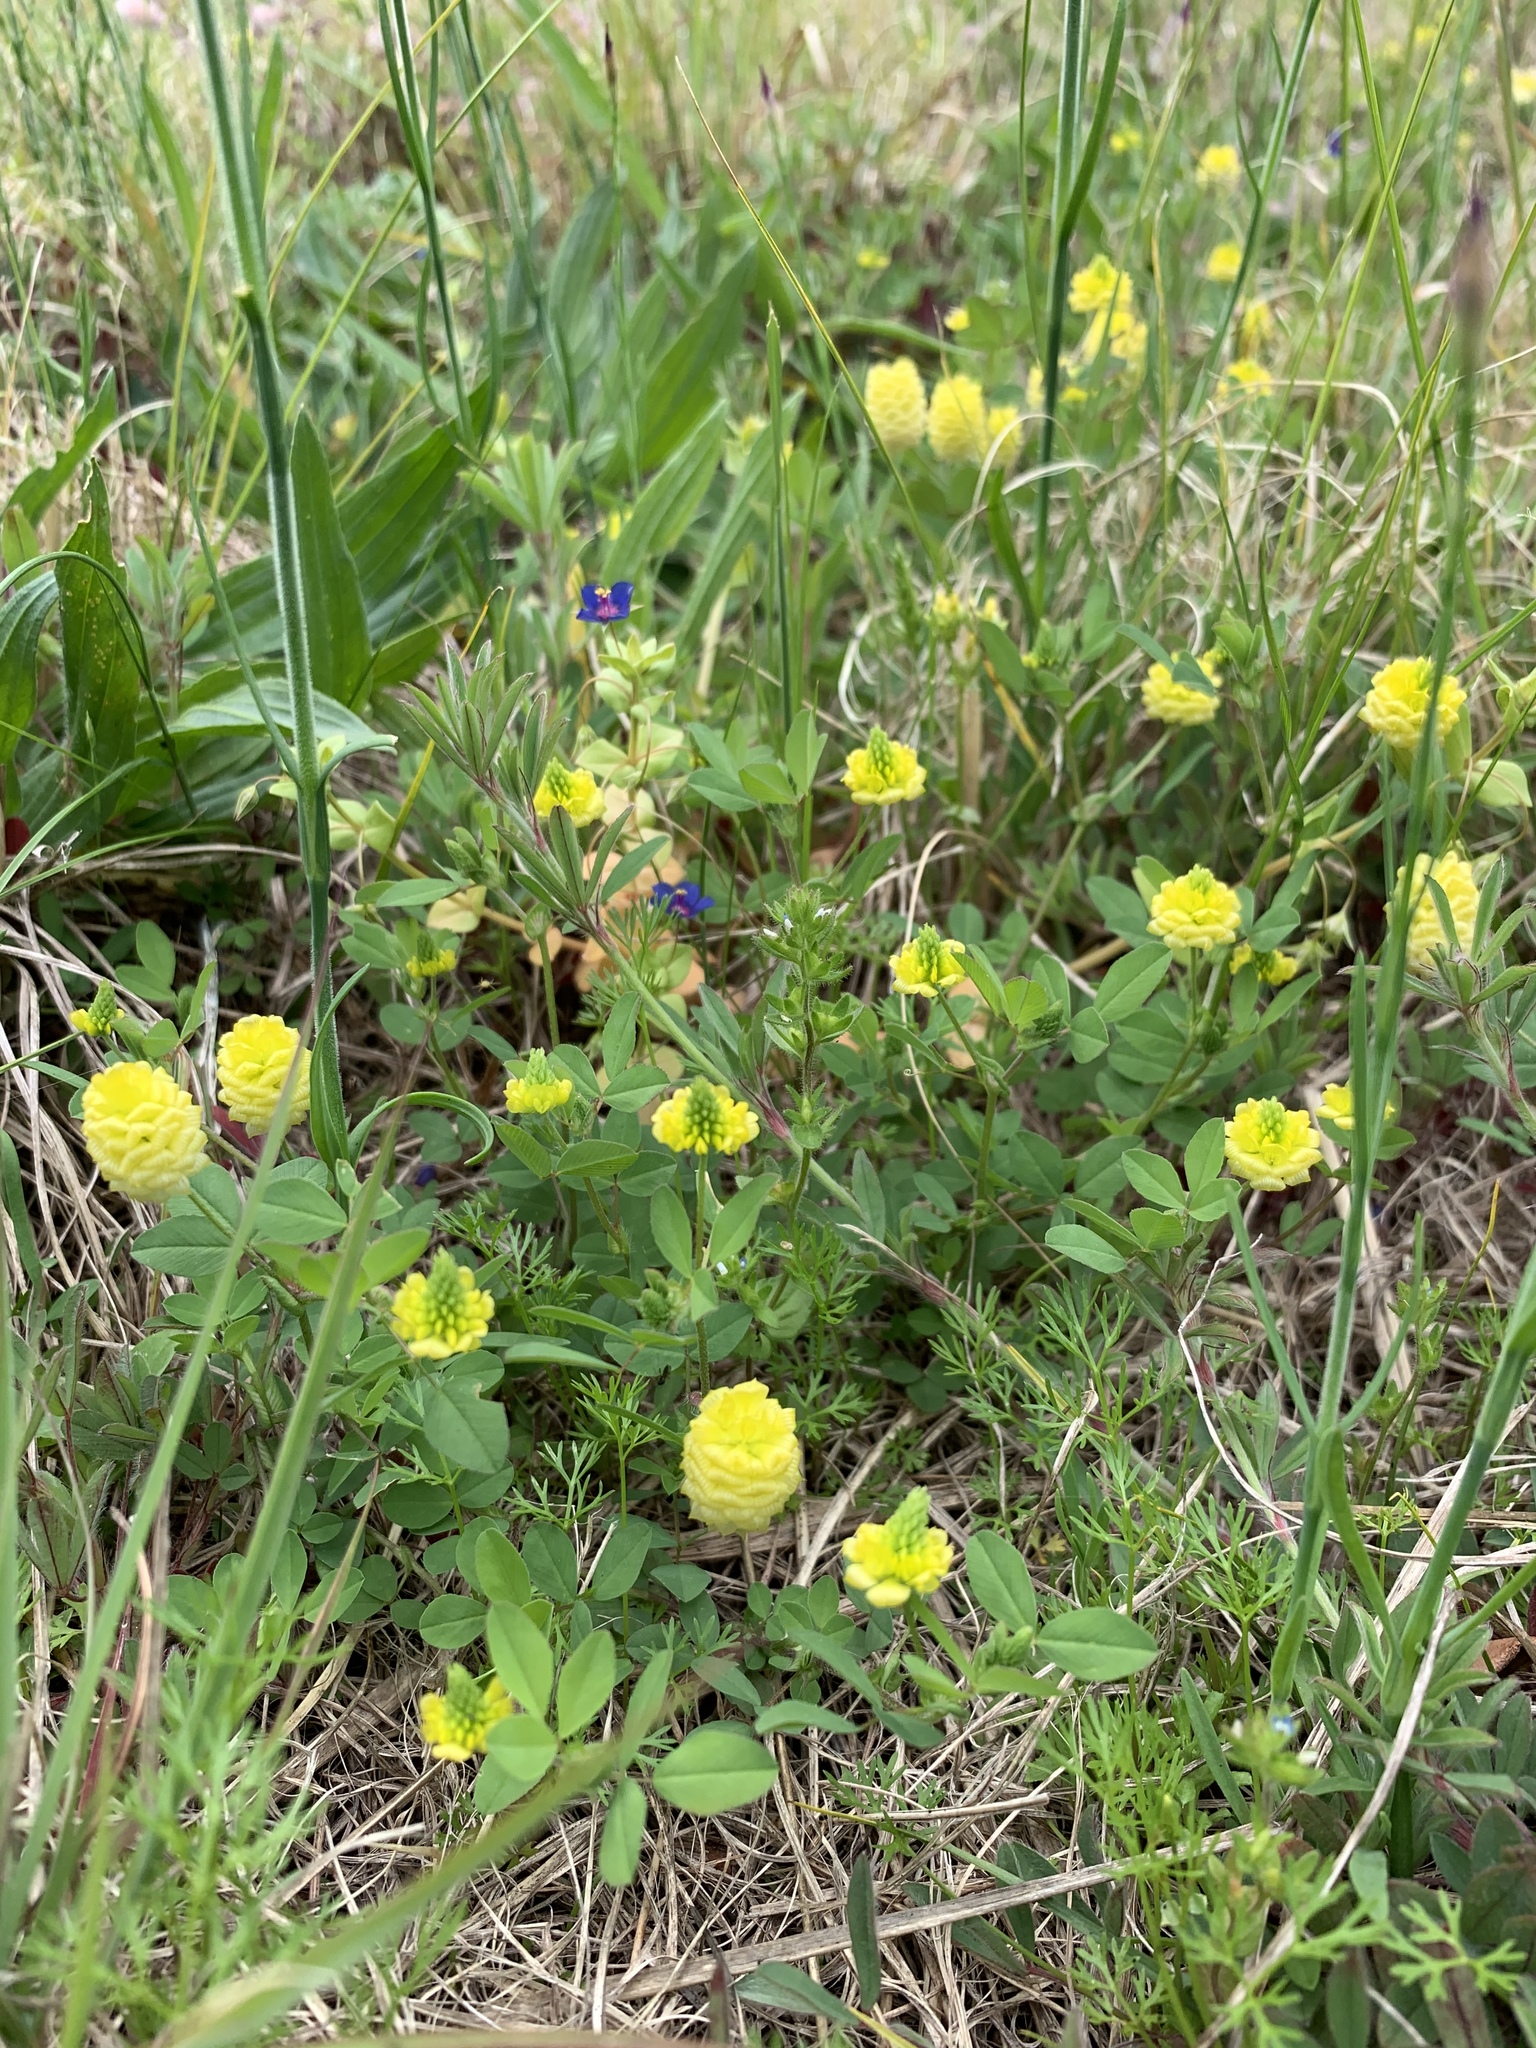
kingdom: Plantae
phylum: Tracheophyta
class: Magnoliopsida
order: Fabales
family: Fabaceae
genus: Trifolium
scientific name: Trifolium campestre
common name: Field clover
